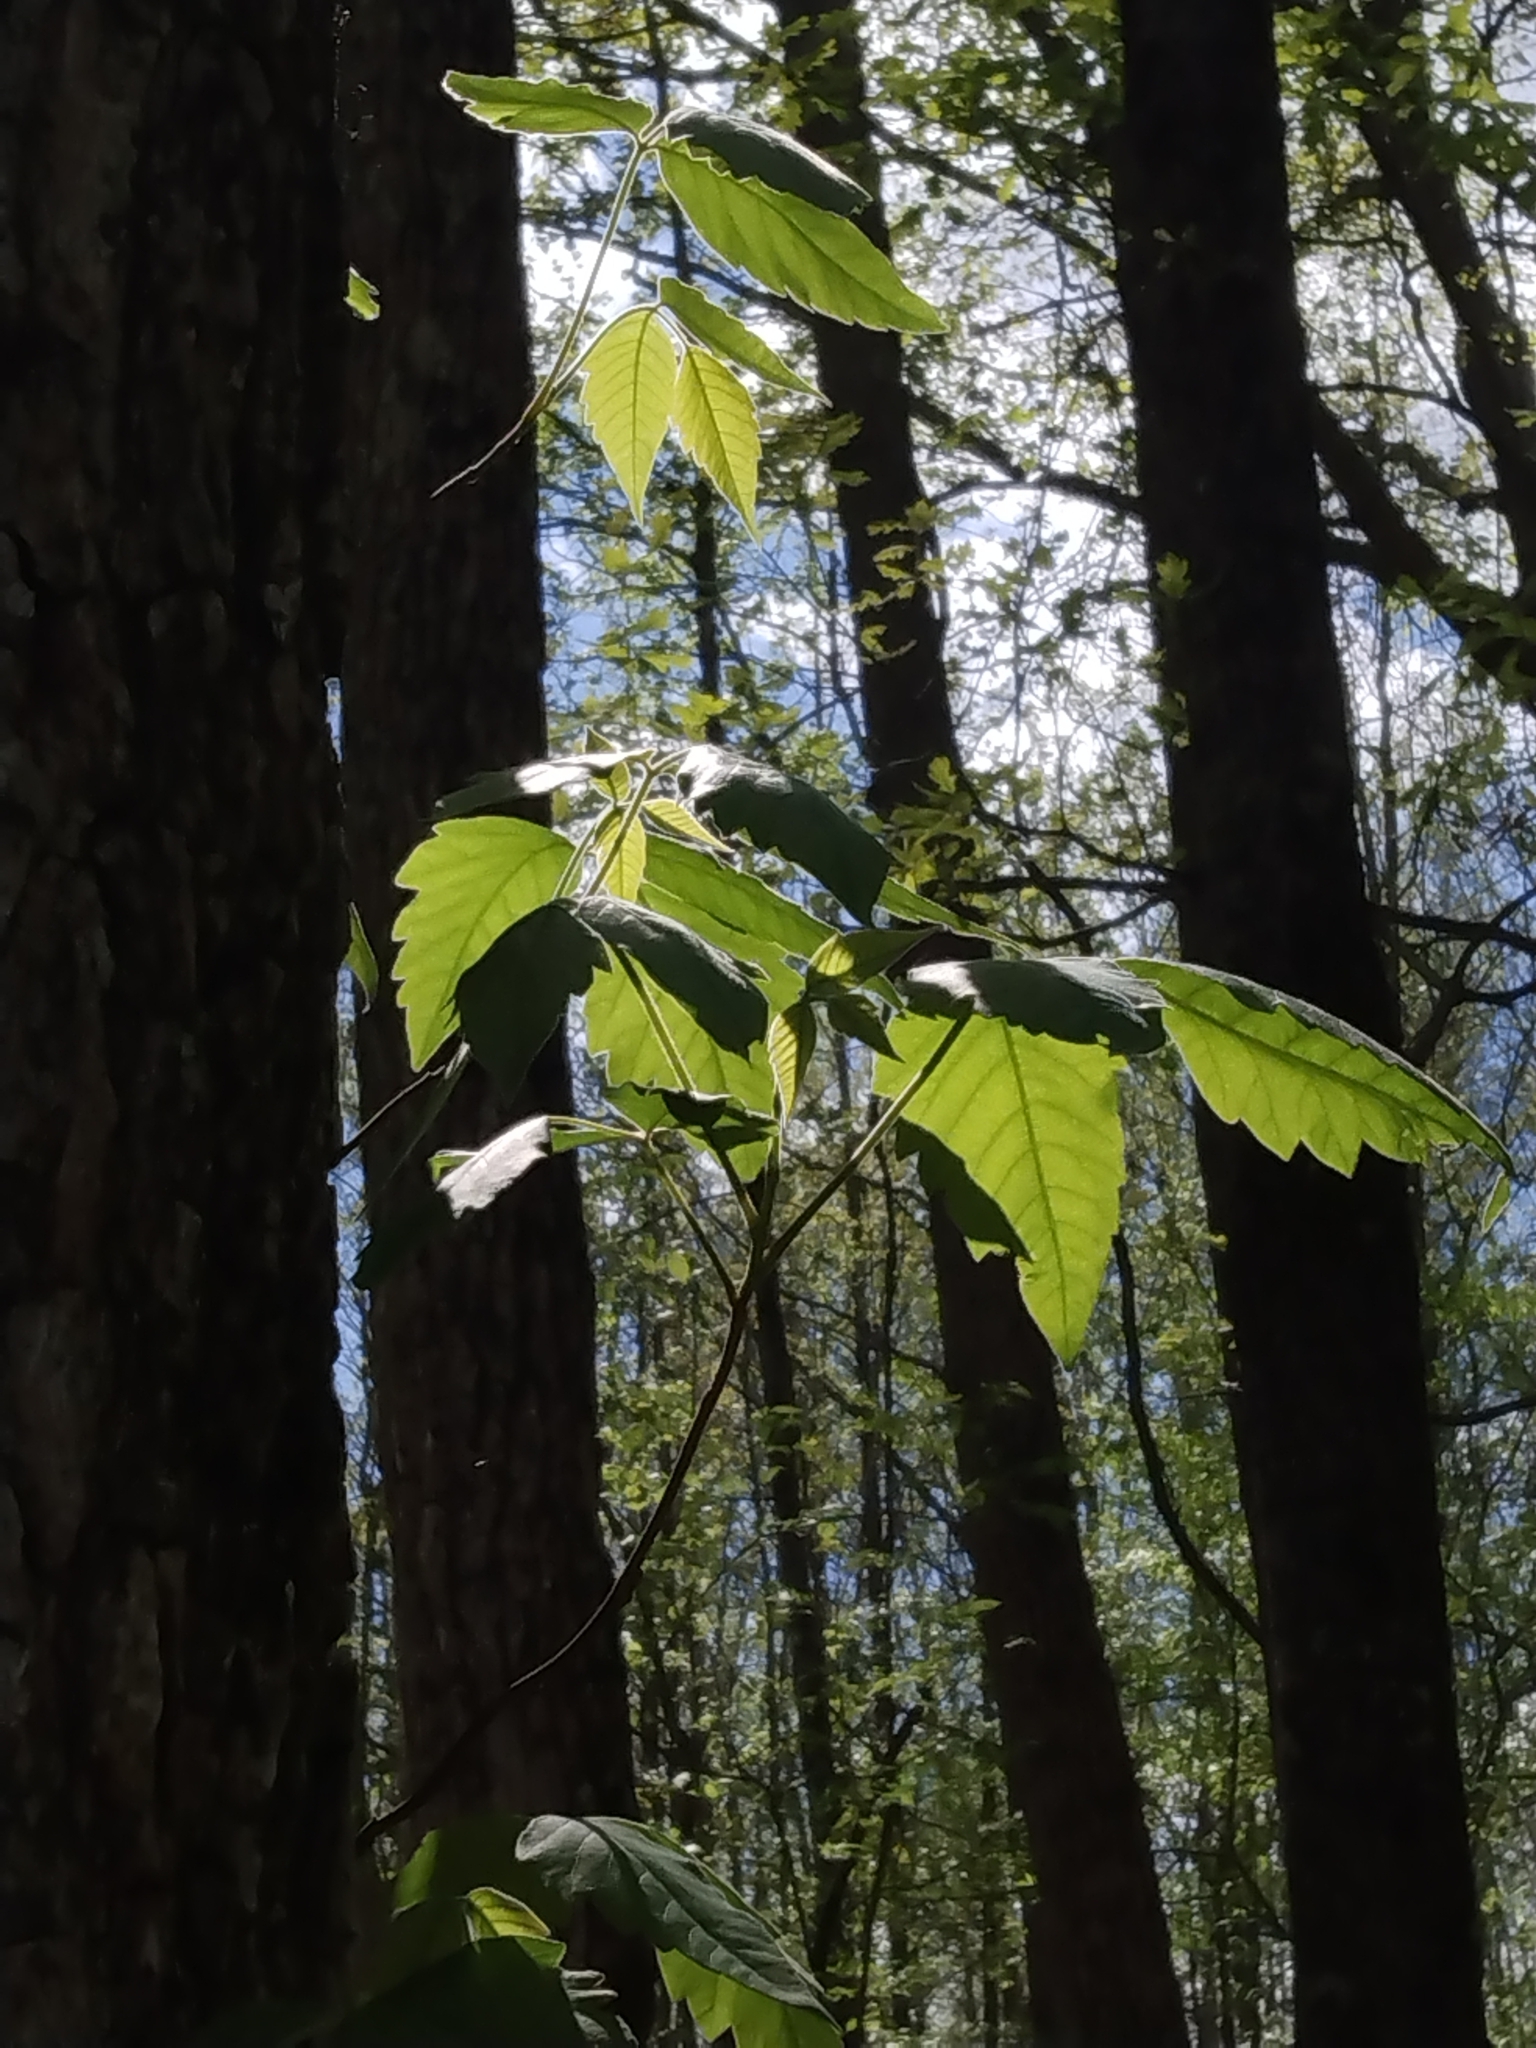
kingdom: Plantae
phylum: Tracheophyta
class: Magnoliopsida
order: Sapindales
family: Anacardiaceae
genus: Toxicodendron
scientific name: Toxicodendron radicans
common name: Poison ivy
